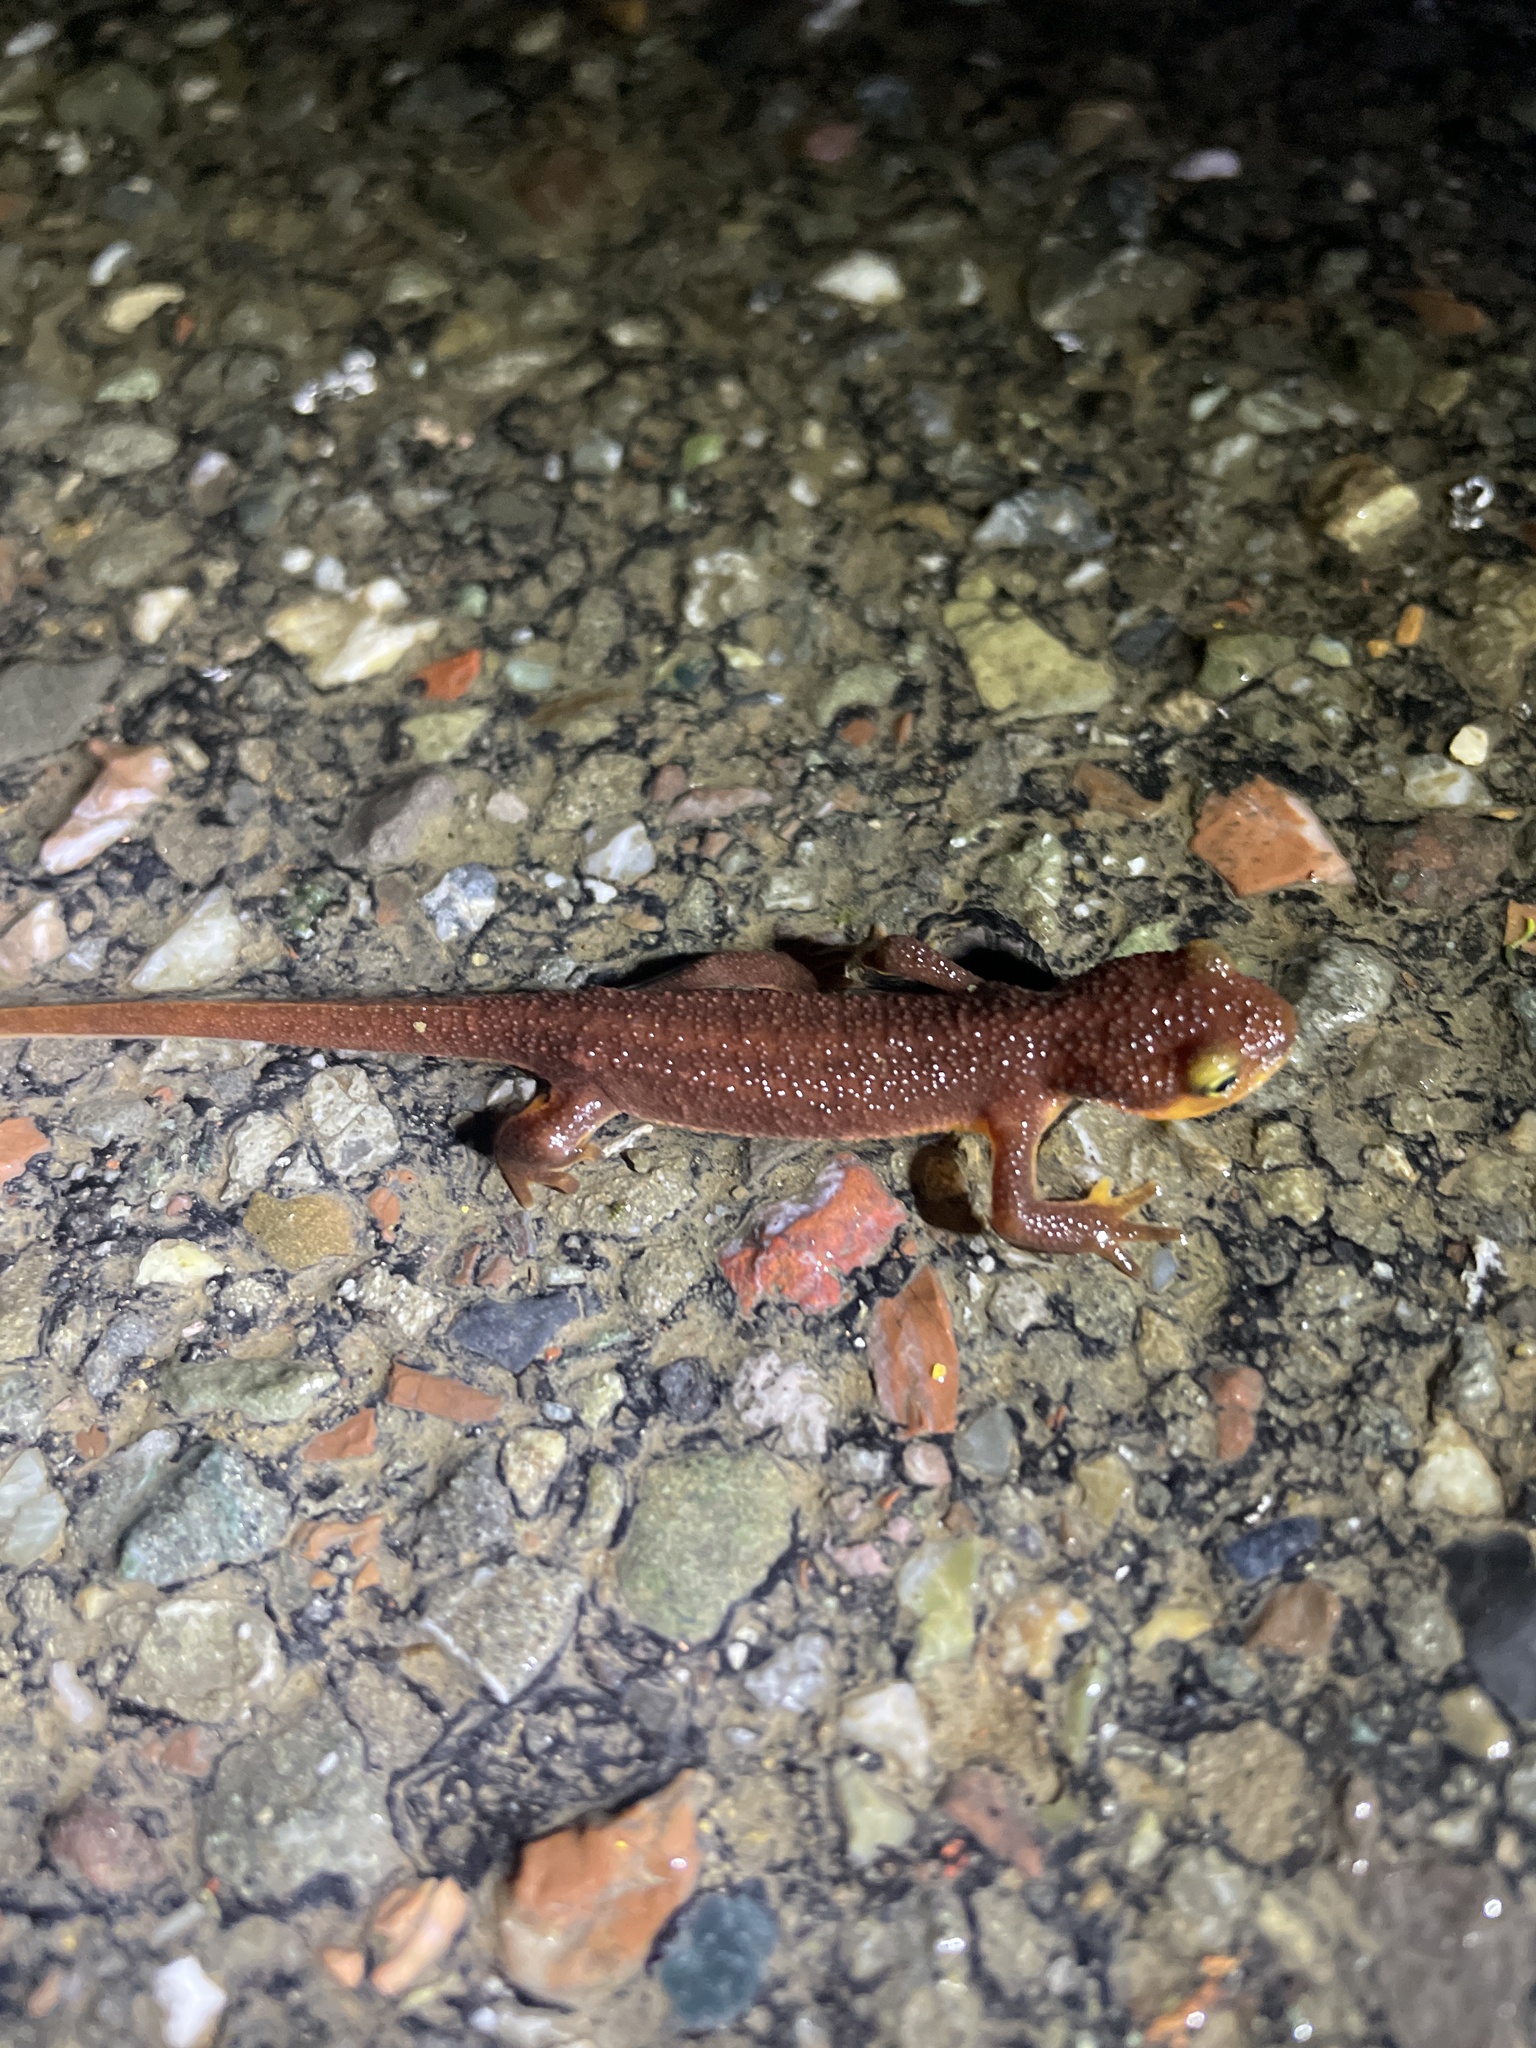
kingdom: Animalia
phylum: Chordata
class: Amphibia
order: Caudata
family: Salamandridae
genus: Taricha
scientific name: Taricha torosa
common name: California newt
